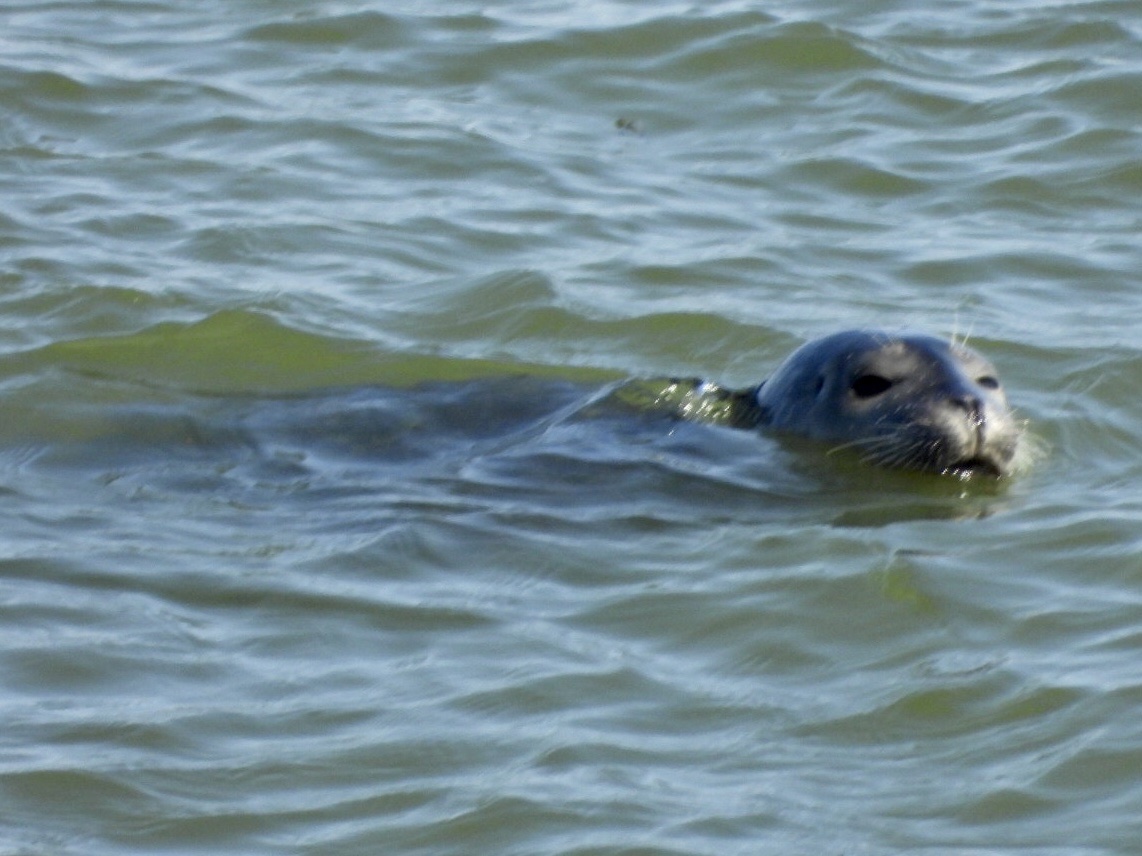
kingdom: Animalia
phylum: Chordata
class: Mammalia
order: Carnivora
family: Phocidae
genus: Phoca
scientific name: Phoca vitulina
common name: Harbor seal
